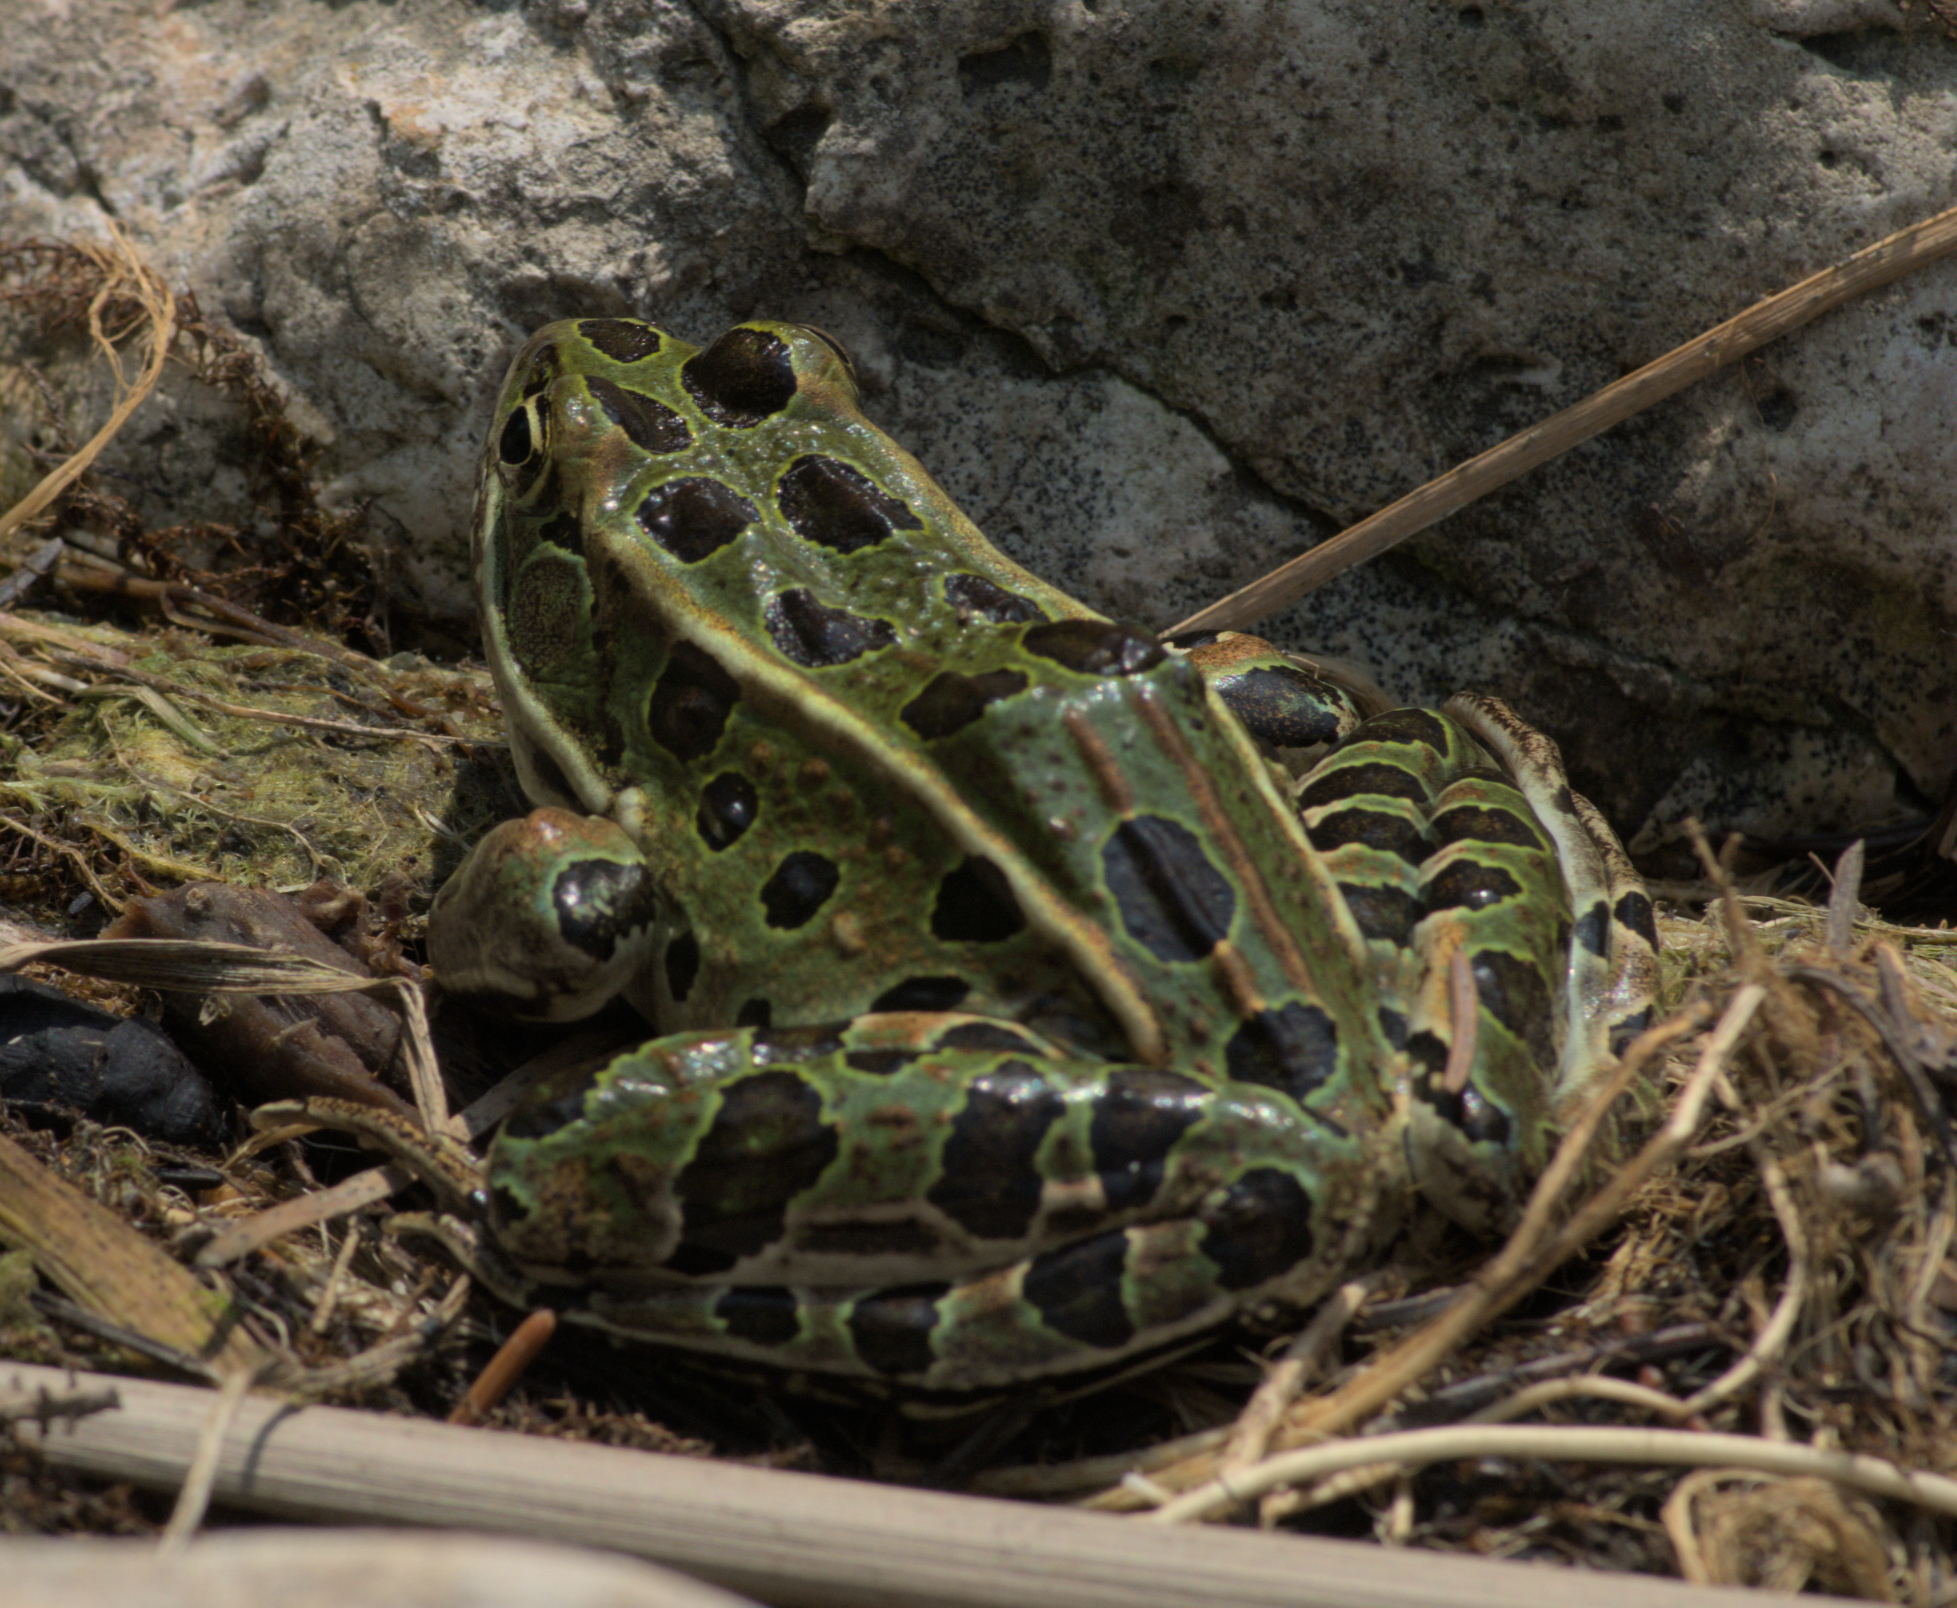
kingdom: Animalia
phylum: Chordata
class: Amphibia
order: Anura
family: Ranidae
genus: Lithobates
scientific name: Lithobates pipiens
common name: Northern leopard frog
